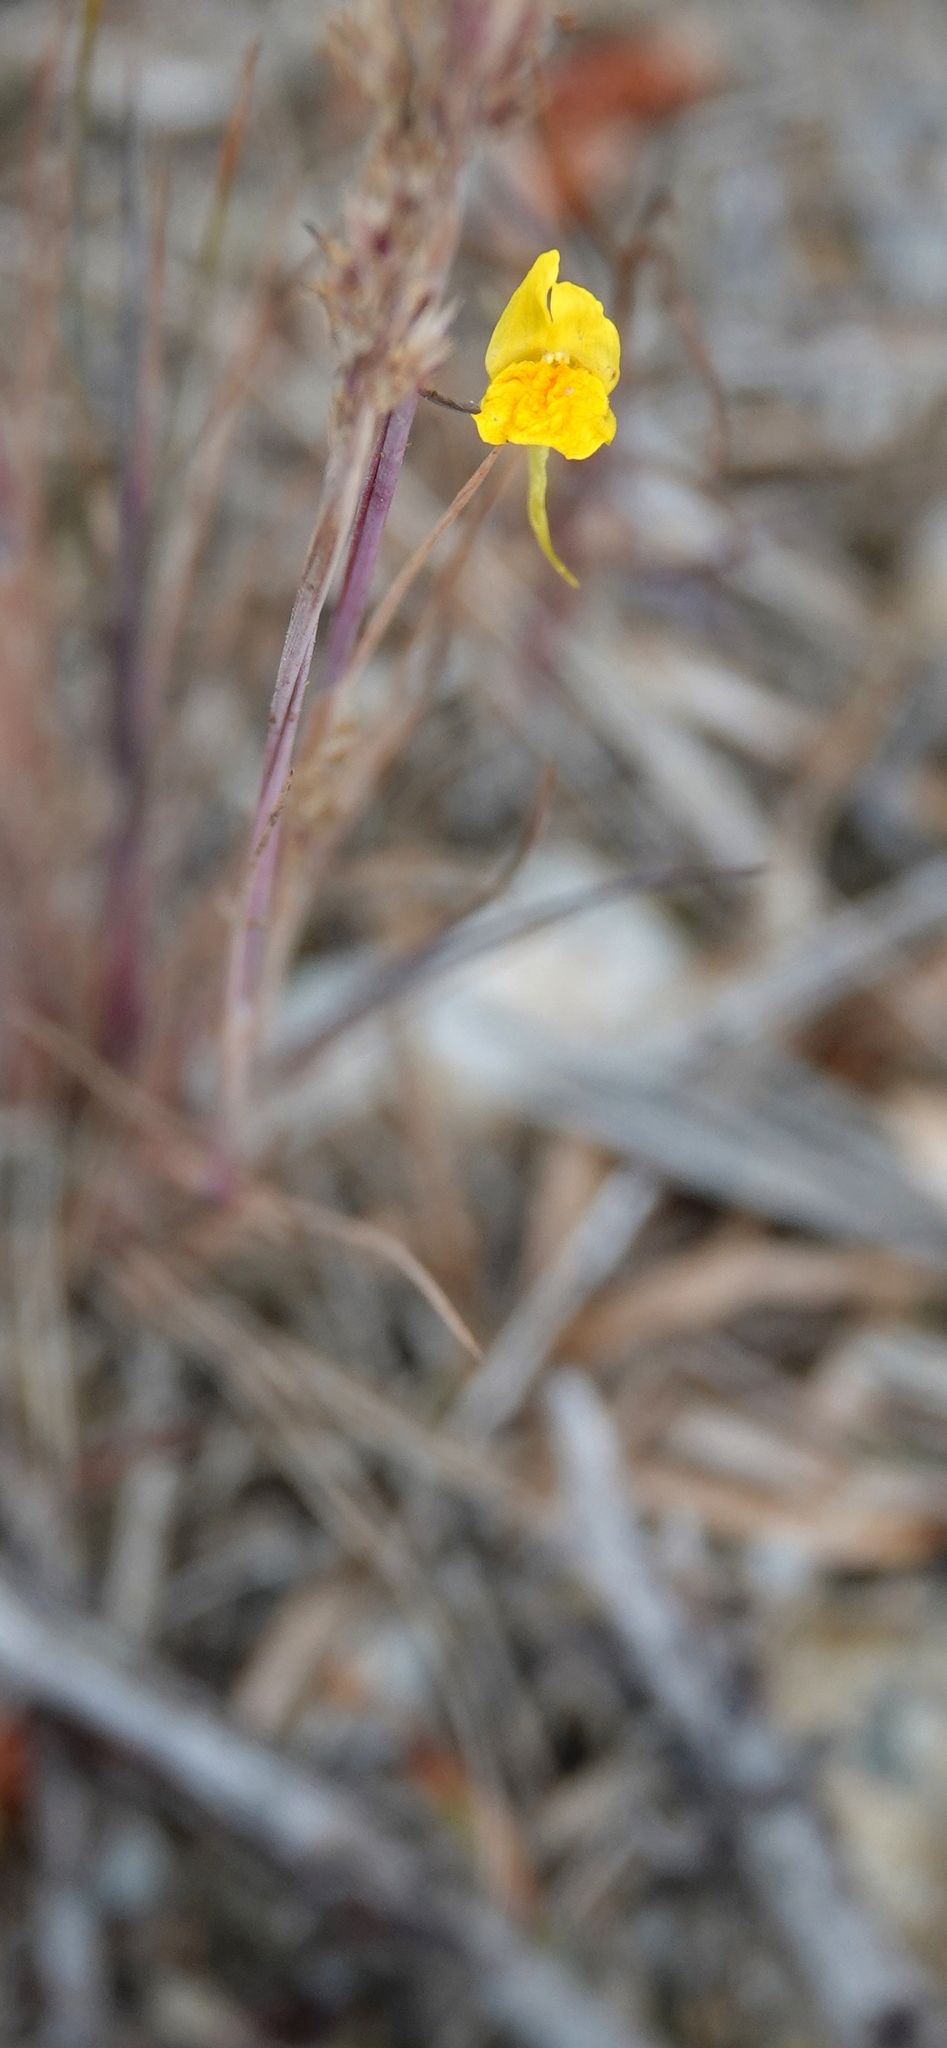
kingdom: Plantae
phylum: Tracheophyta
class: Magnoliopsida
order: Lamiales
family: Plantaginaceae
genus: Linaria
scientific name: Linaria spartea
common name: Ballast toadflax
